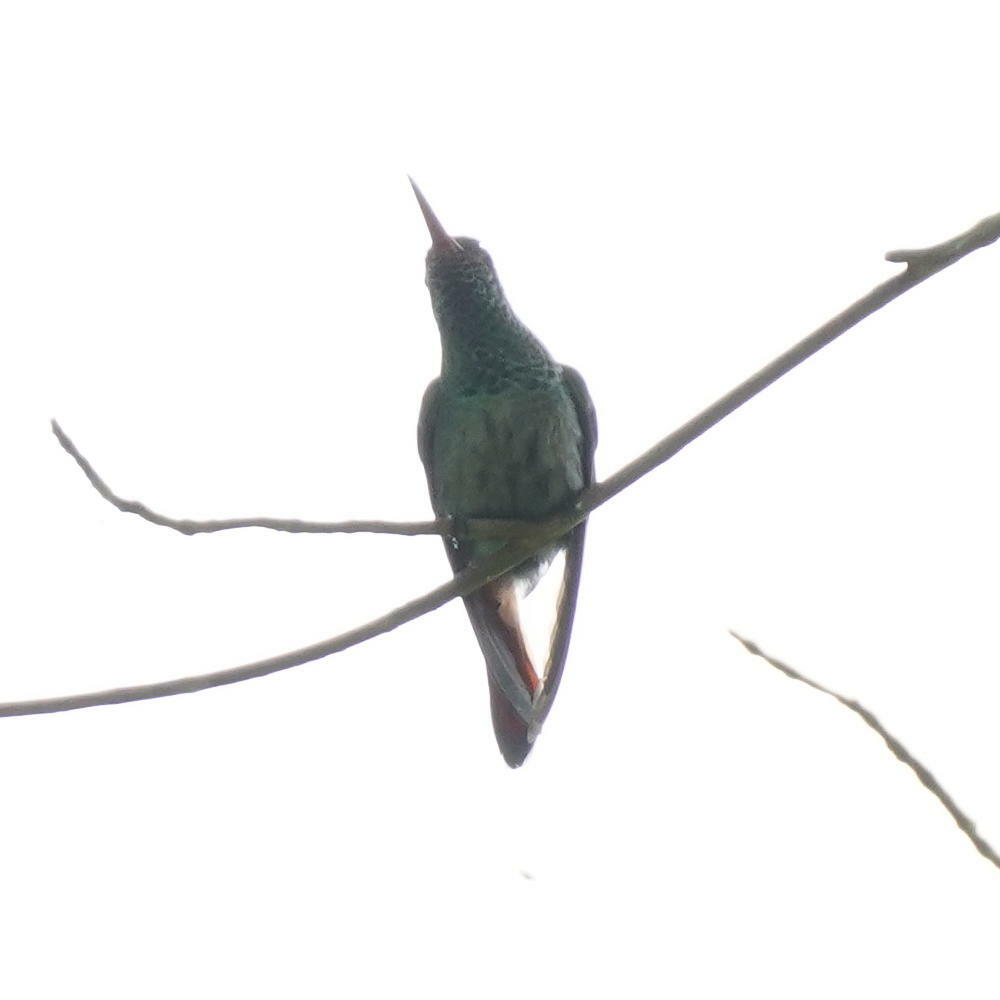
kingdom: Animalia
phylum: Chordata
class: Aves
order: Apodiformes
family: Trochilidae
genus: Amazilia
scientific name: Amazilia tzacatl
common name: Rufous-tailed hummingbird
